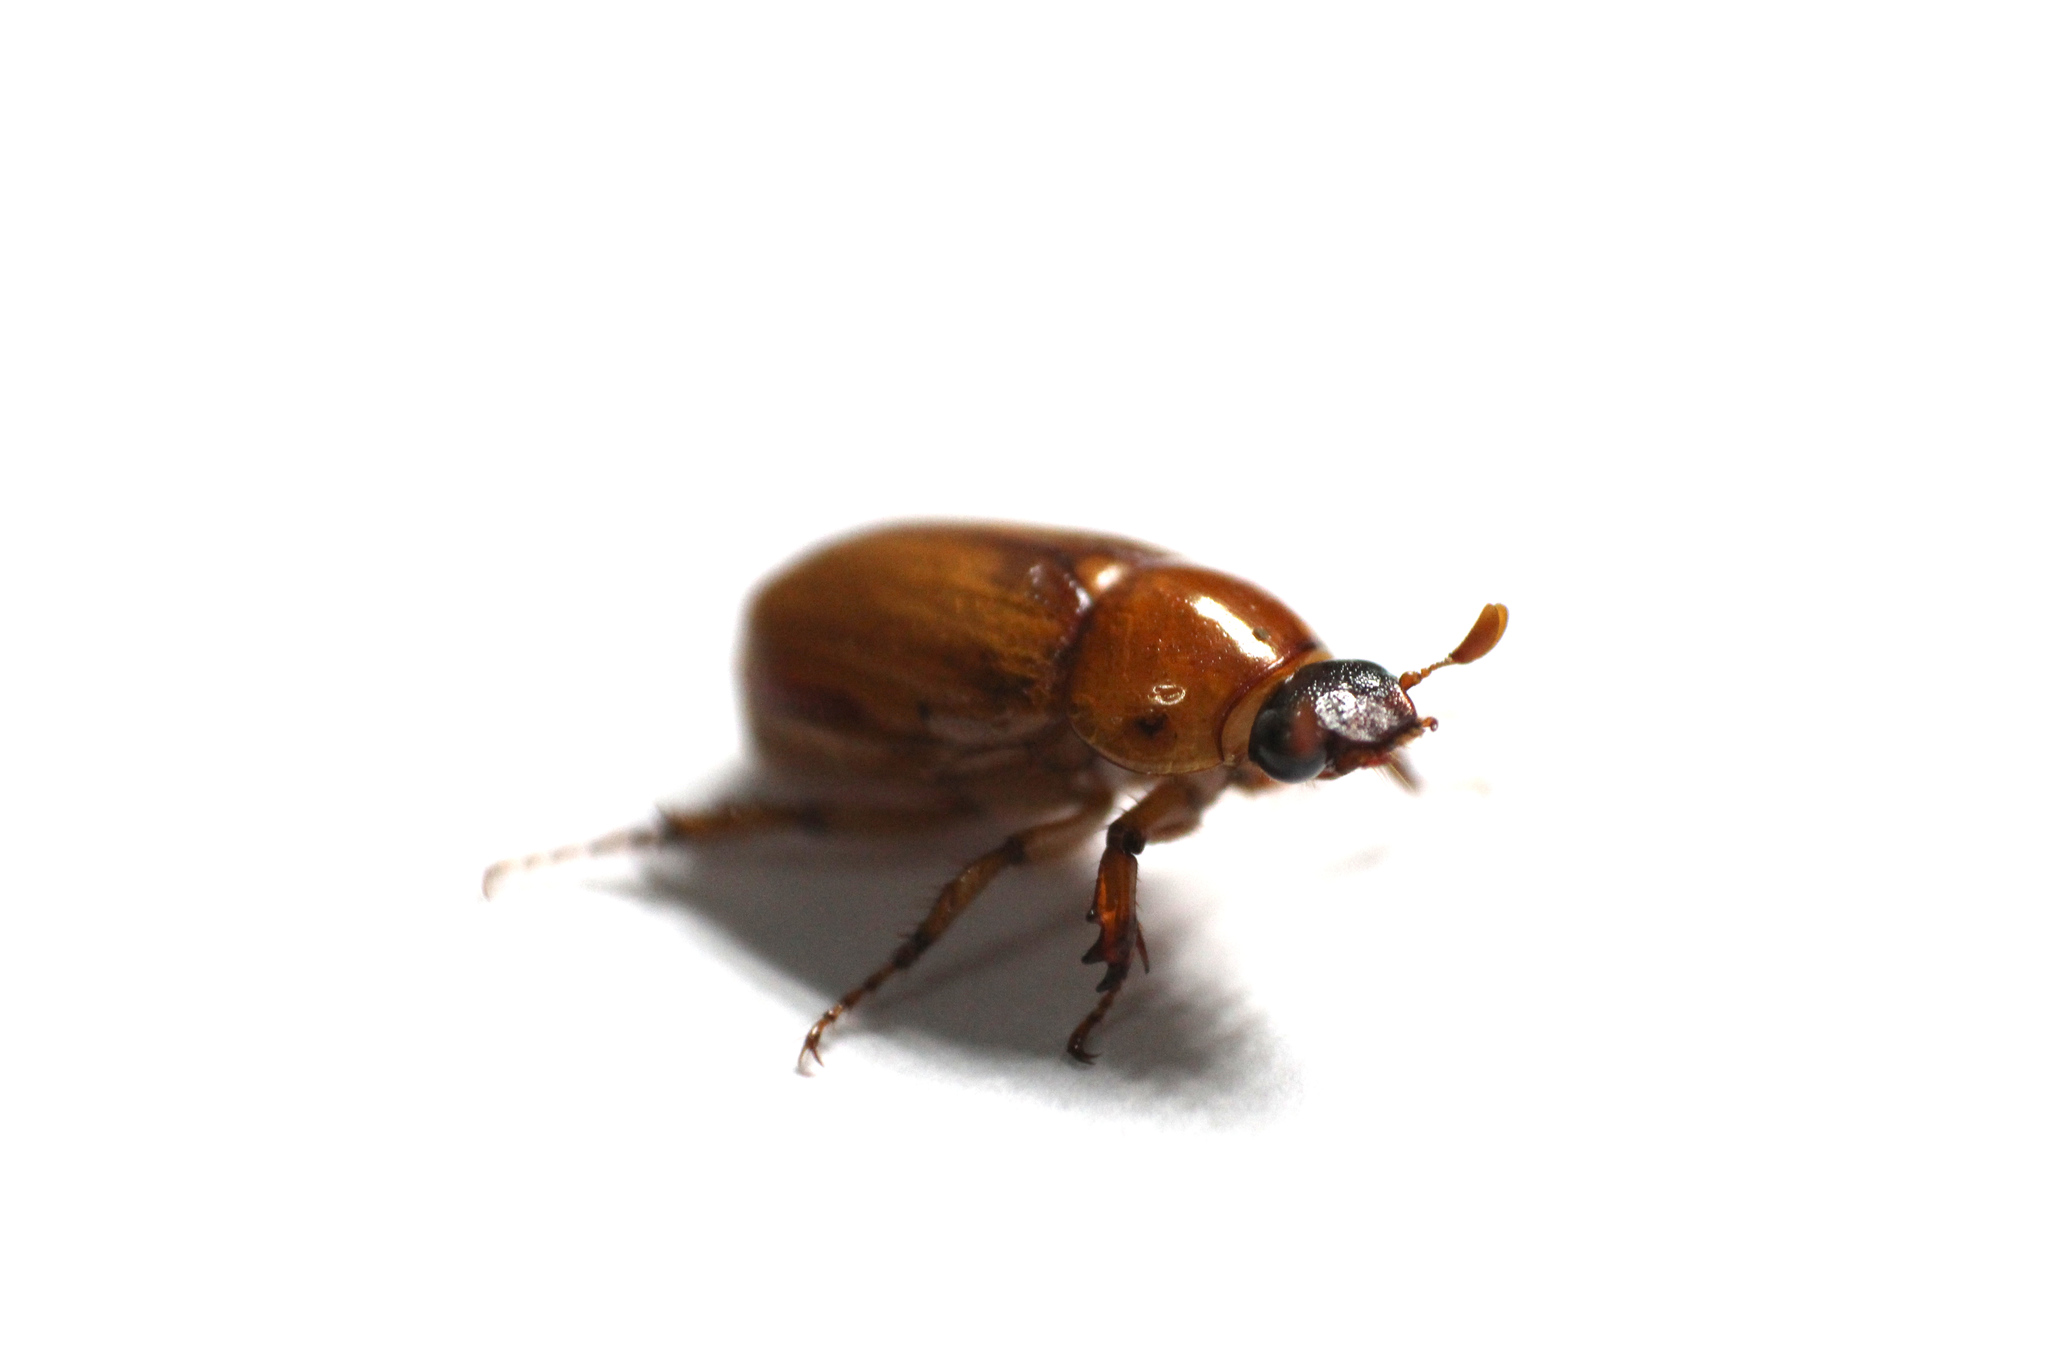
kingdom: Animalia
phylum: Arthropoda
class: Insecta
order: Coleoptera
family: Scarabaeidae
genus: Cyclocephala
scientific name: Cyclocephala lurida
